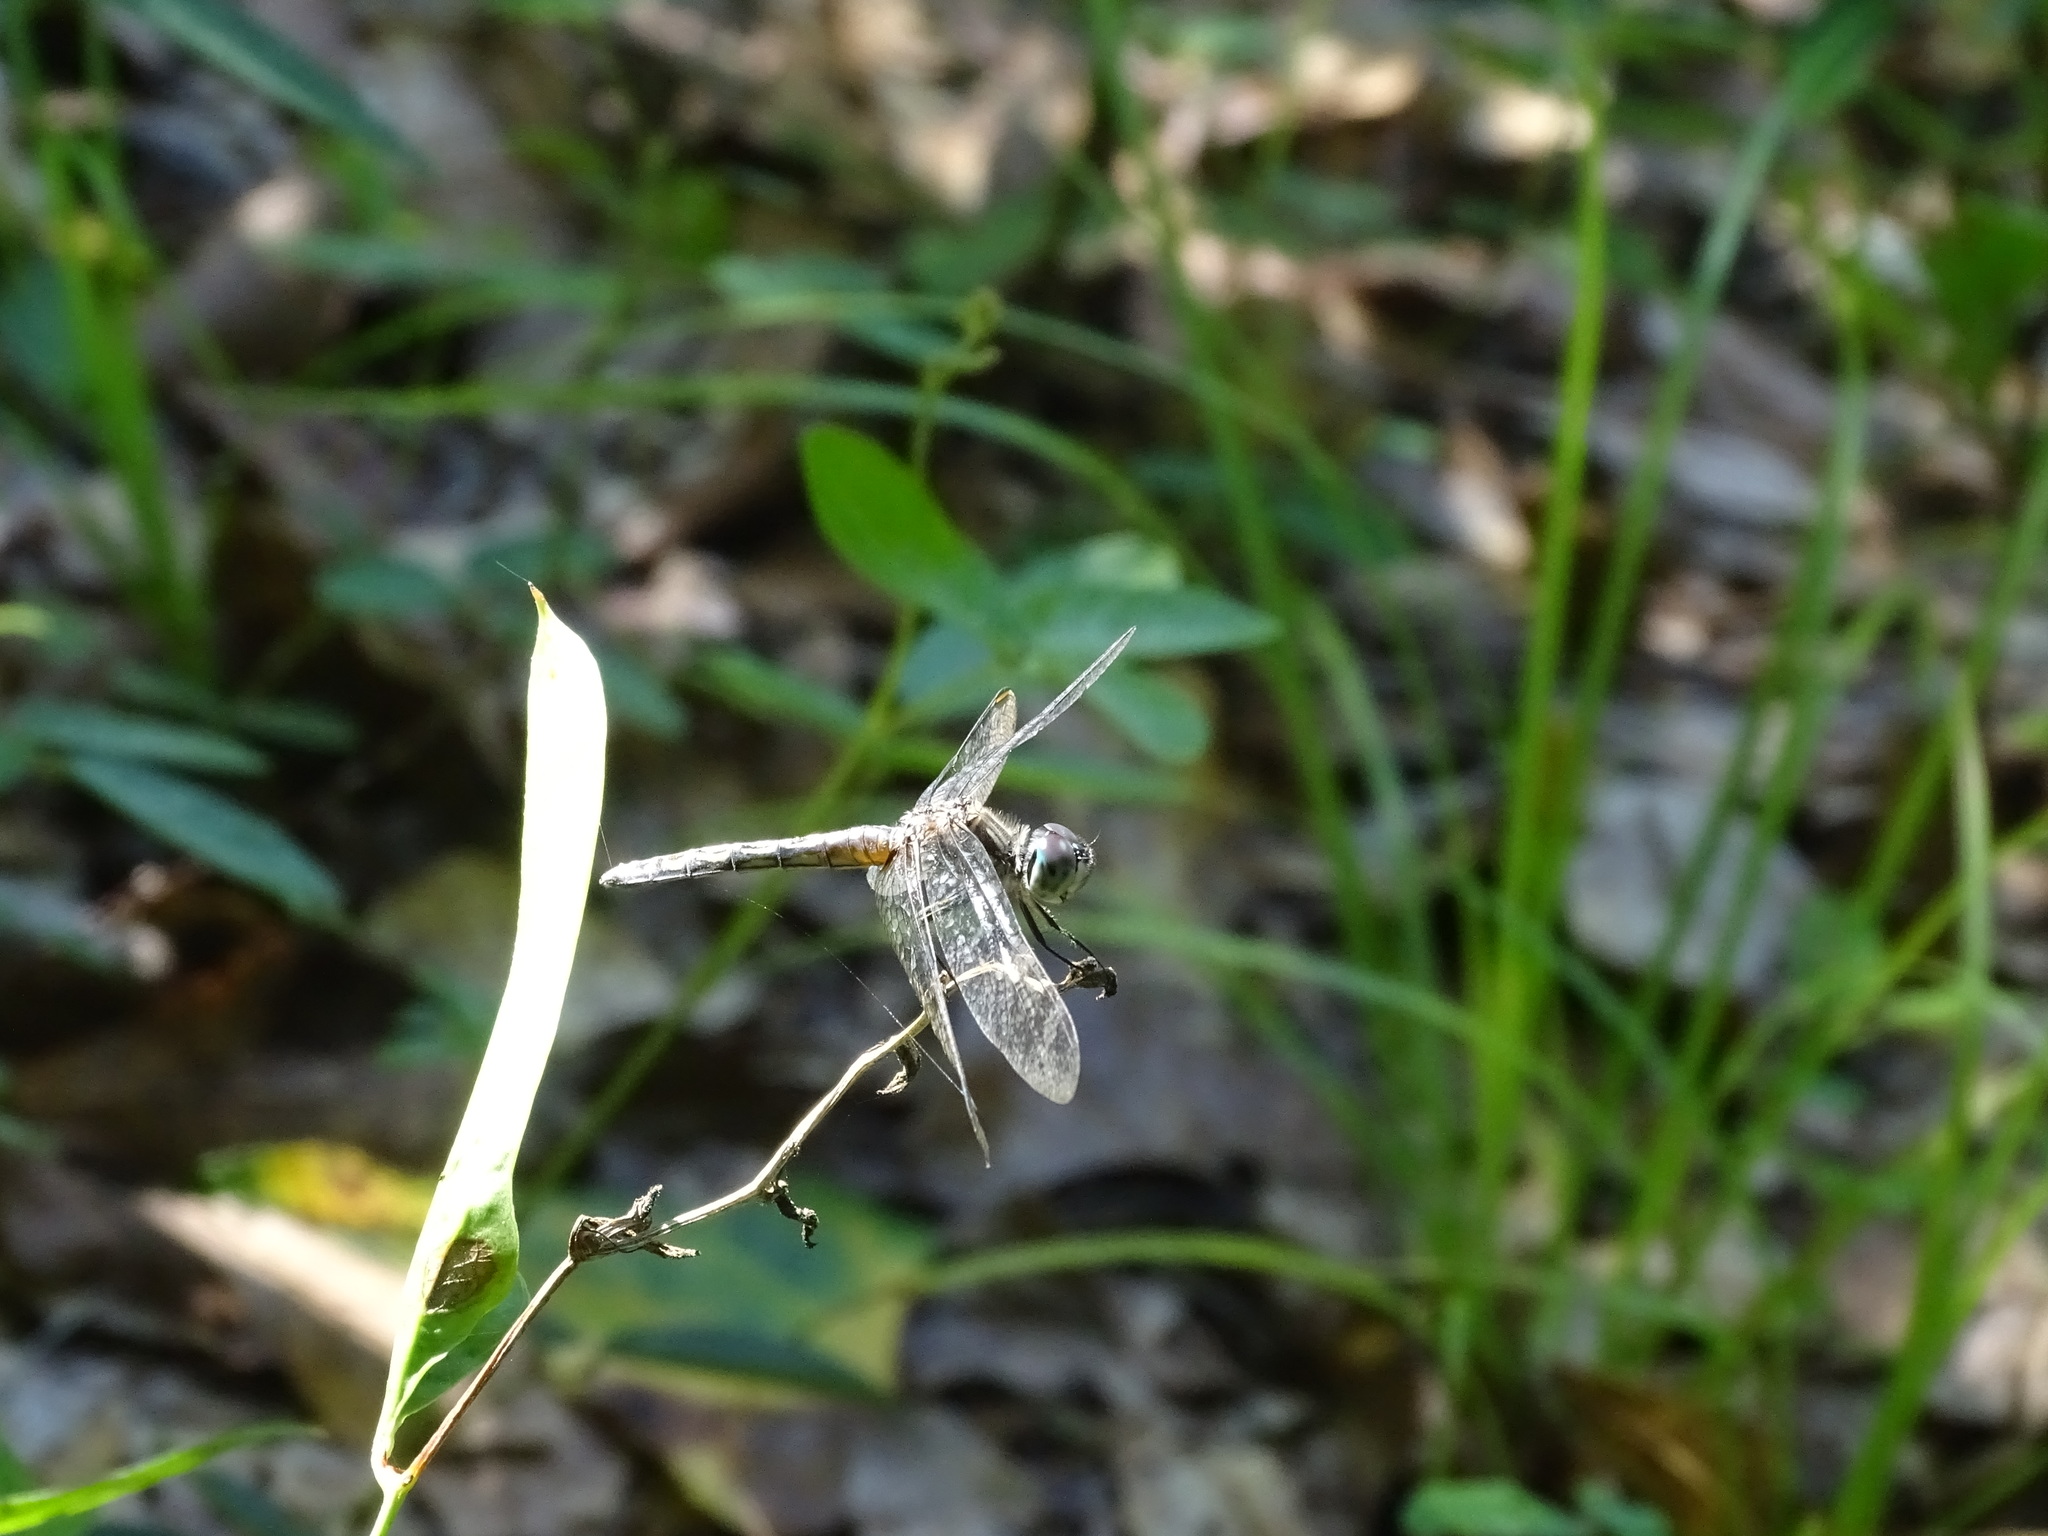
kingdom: Animalia
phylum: Arthropoda
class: Insecta
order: Odonata
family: Libellulidae
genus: Pachydiplax
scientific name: Pachydiplax longipennis
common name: Blue dasher
